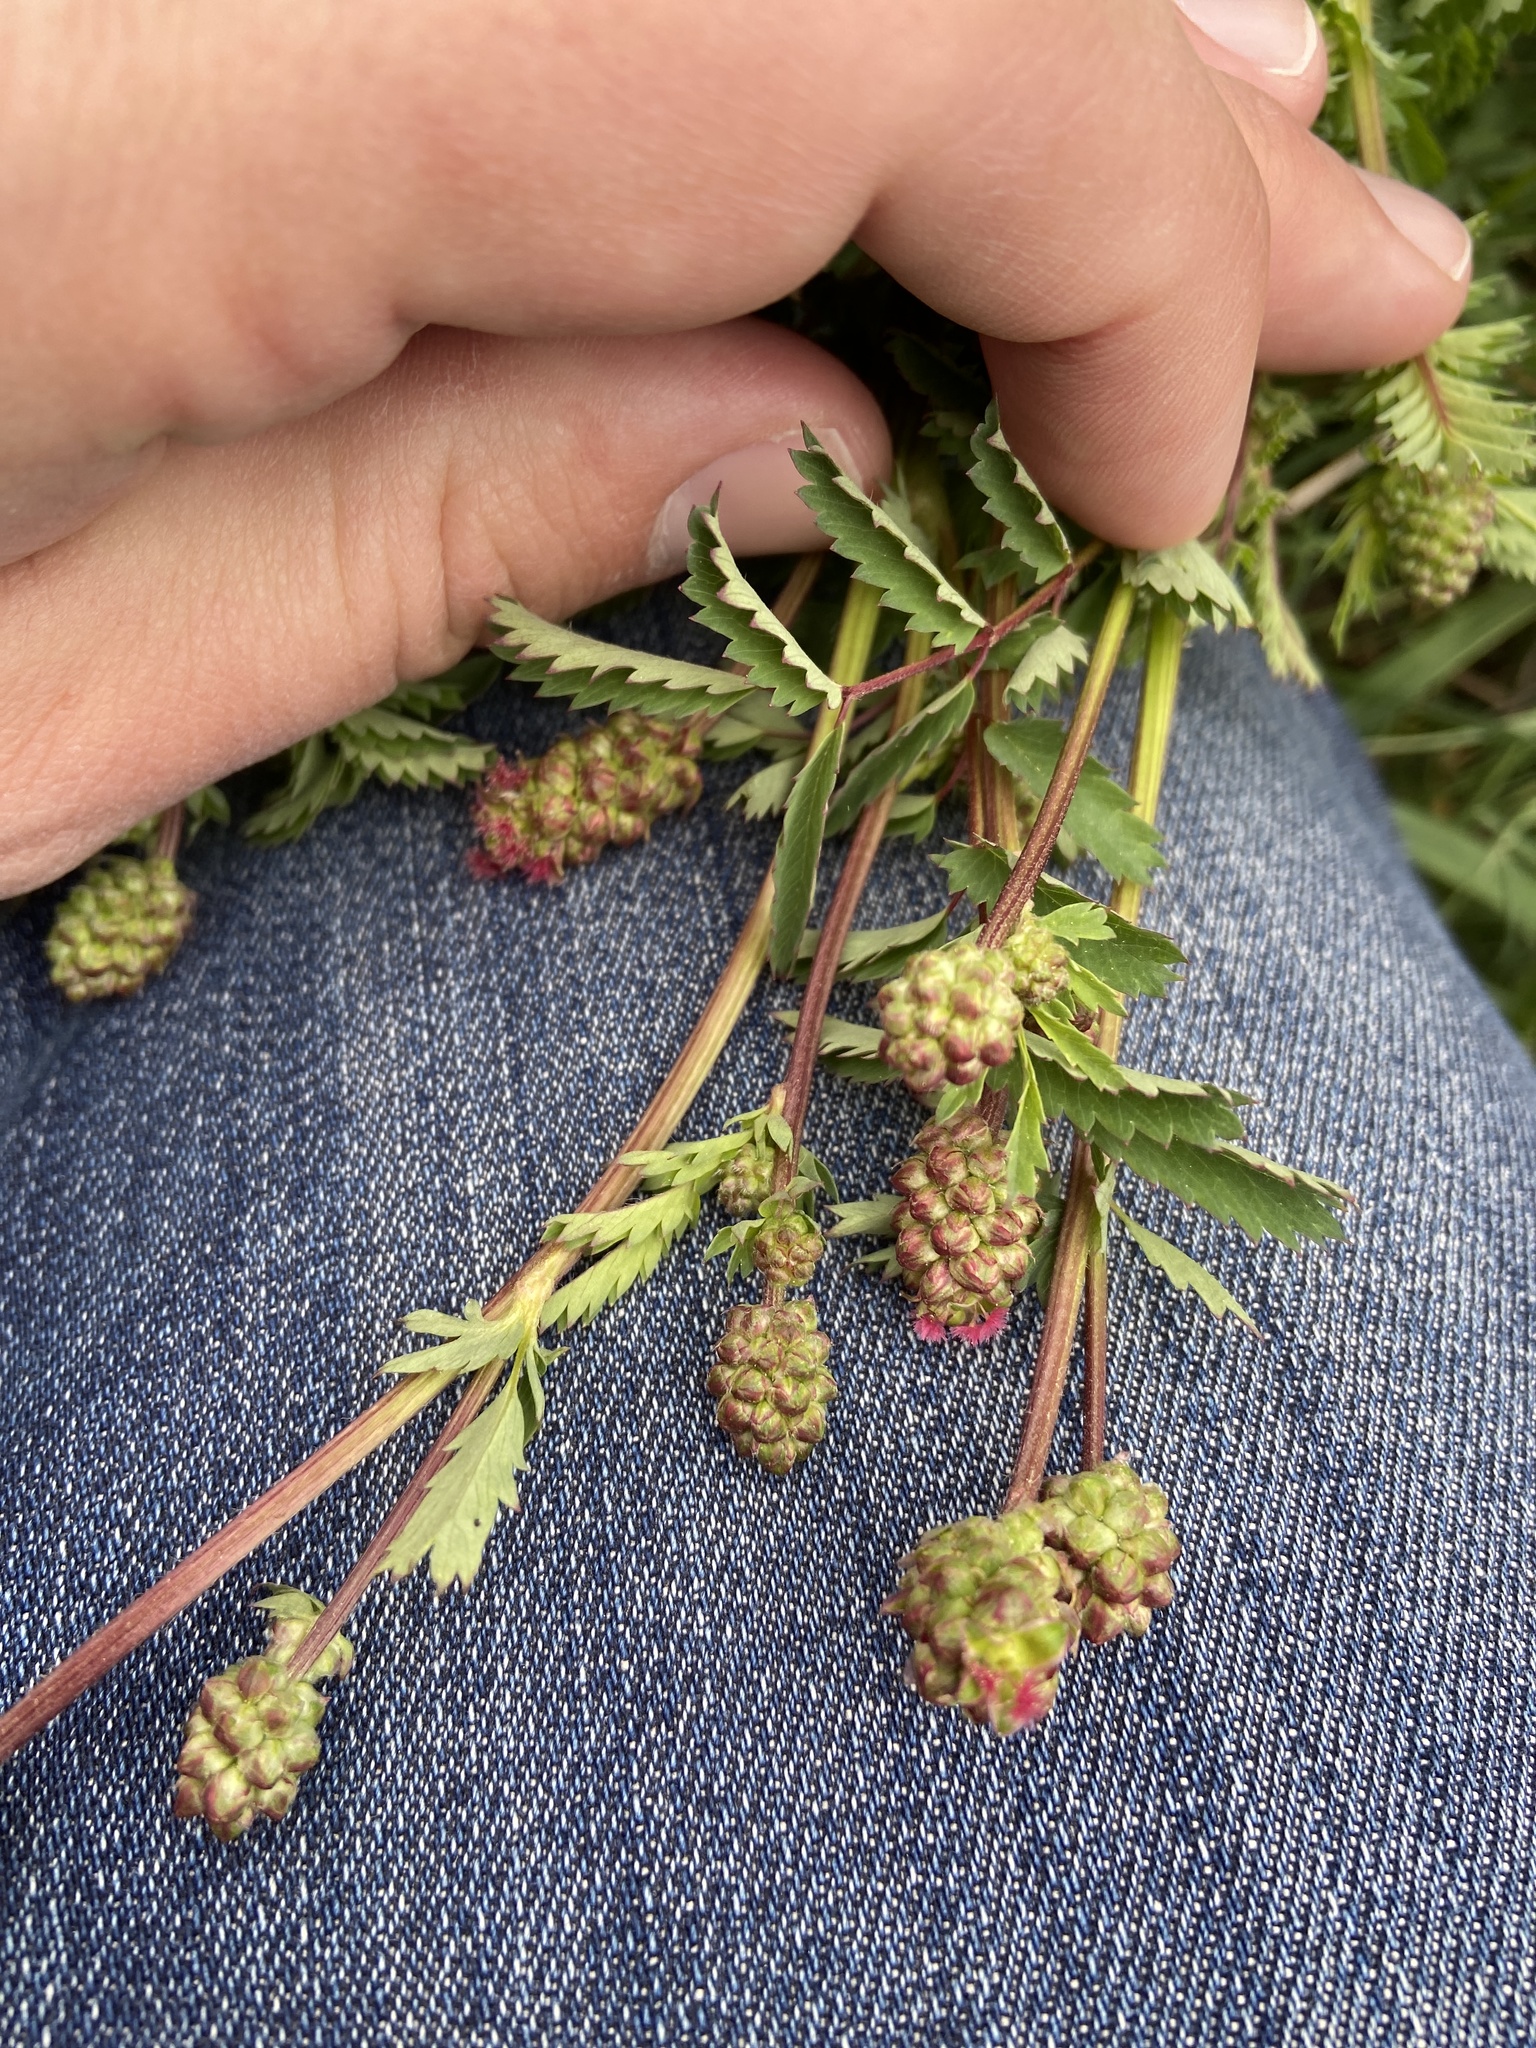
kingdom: Plantae
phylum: Tracheophyta
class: Magnoliopsida
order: Rosales
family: Rosaceae
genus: Poterium
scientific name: Poterium sanguisorba
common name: Salad burnet
